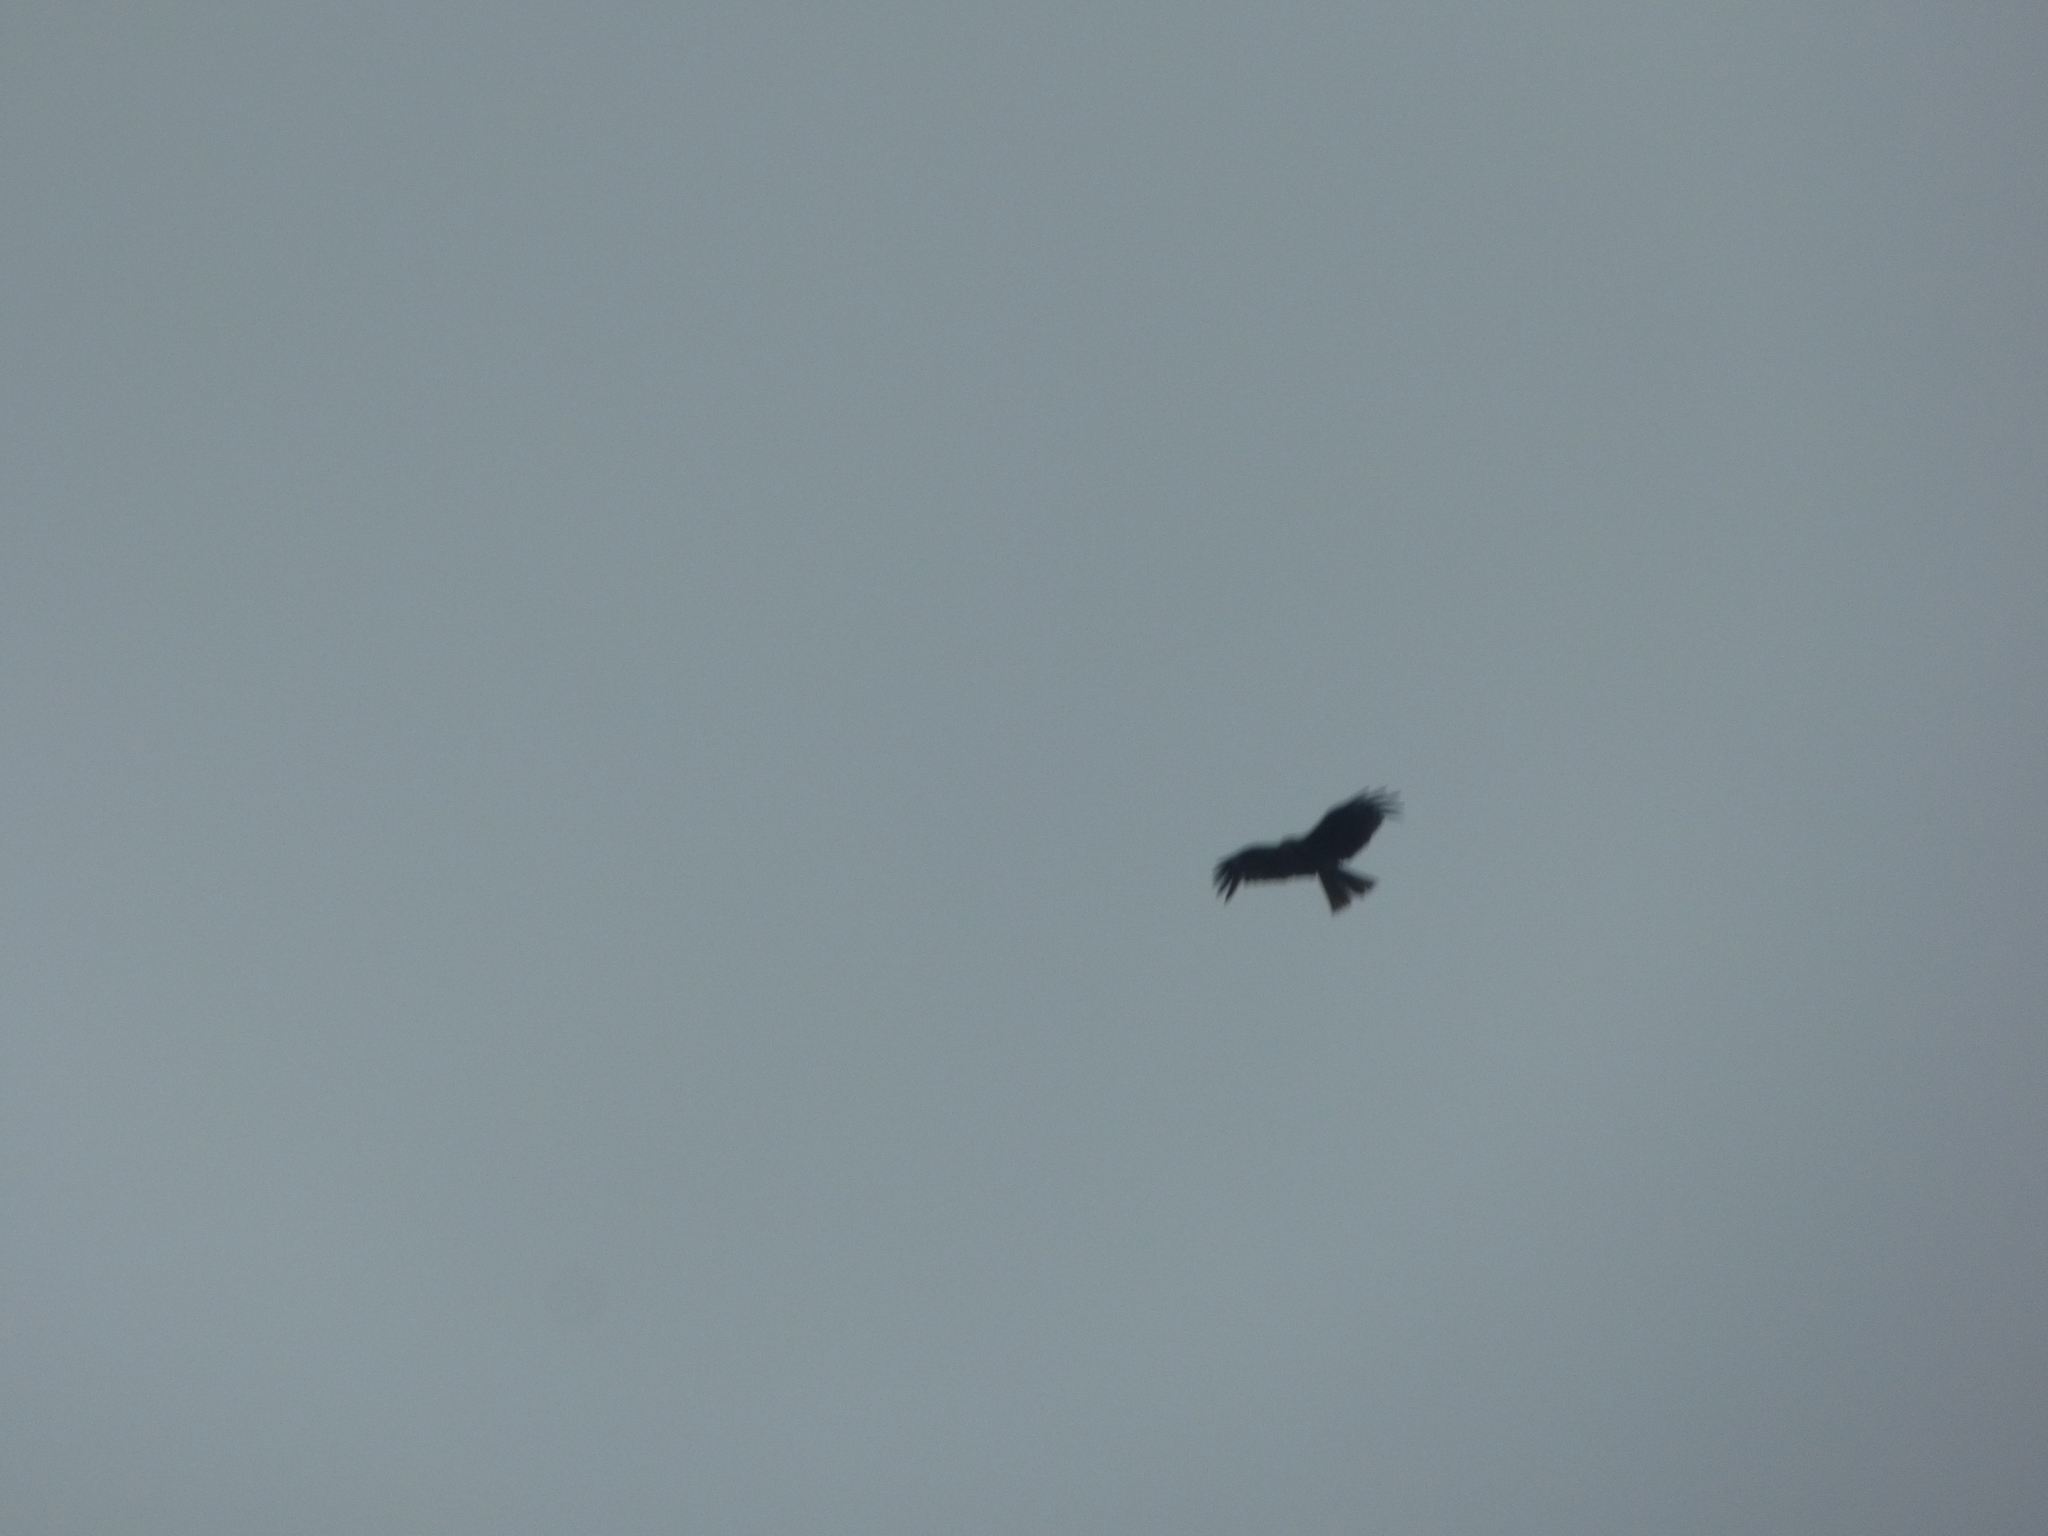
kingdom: Animalia
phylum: Chordata
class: Aves
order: Accipitriformes
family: Accipitridae
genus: Milvus
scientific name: Milvus migrans
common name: Black kite
